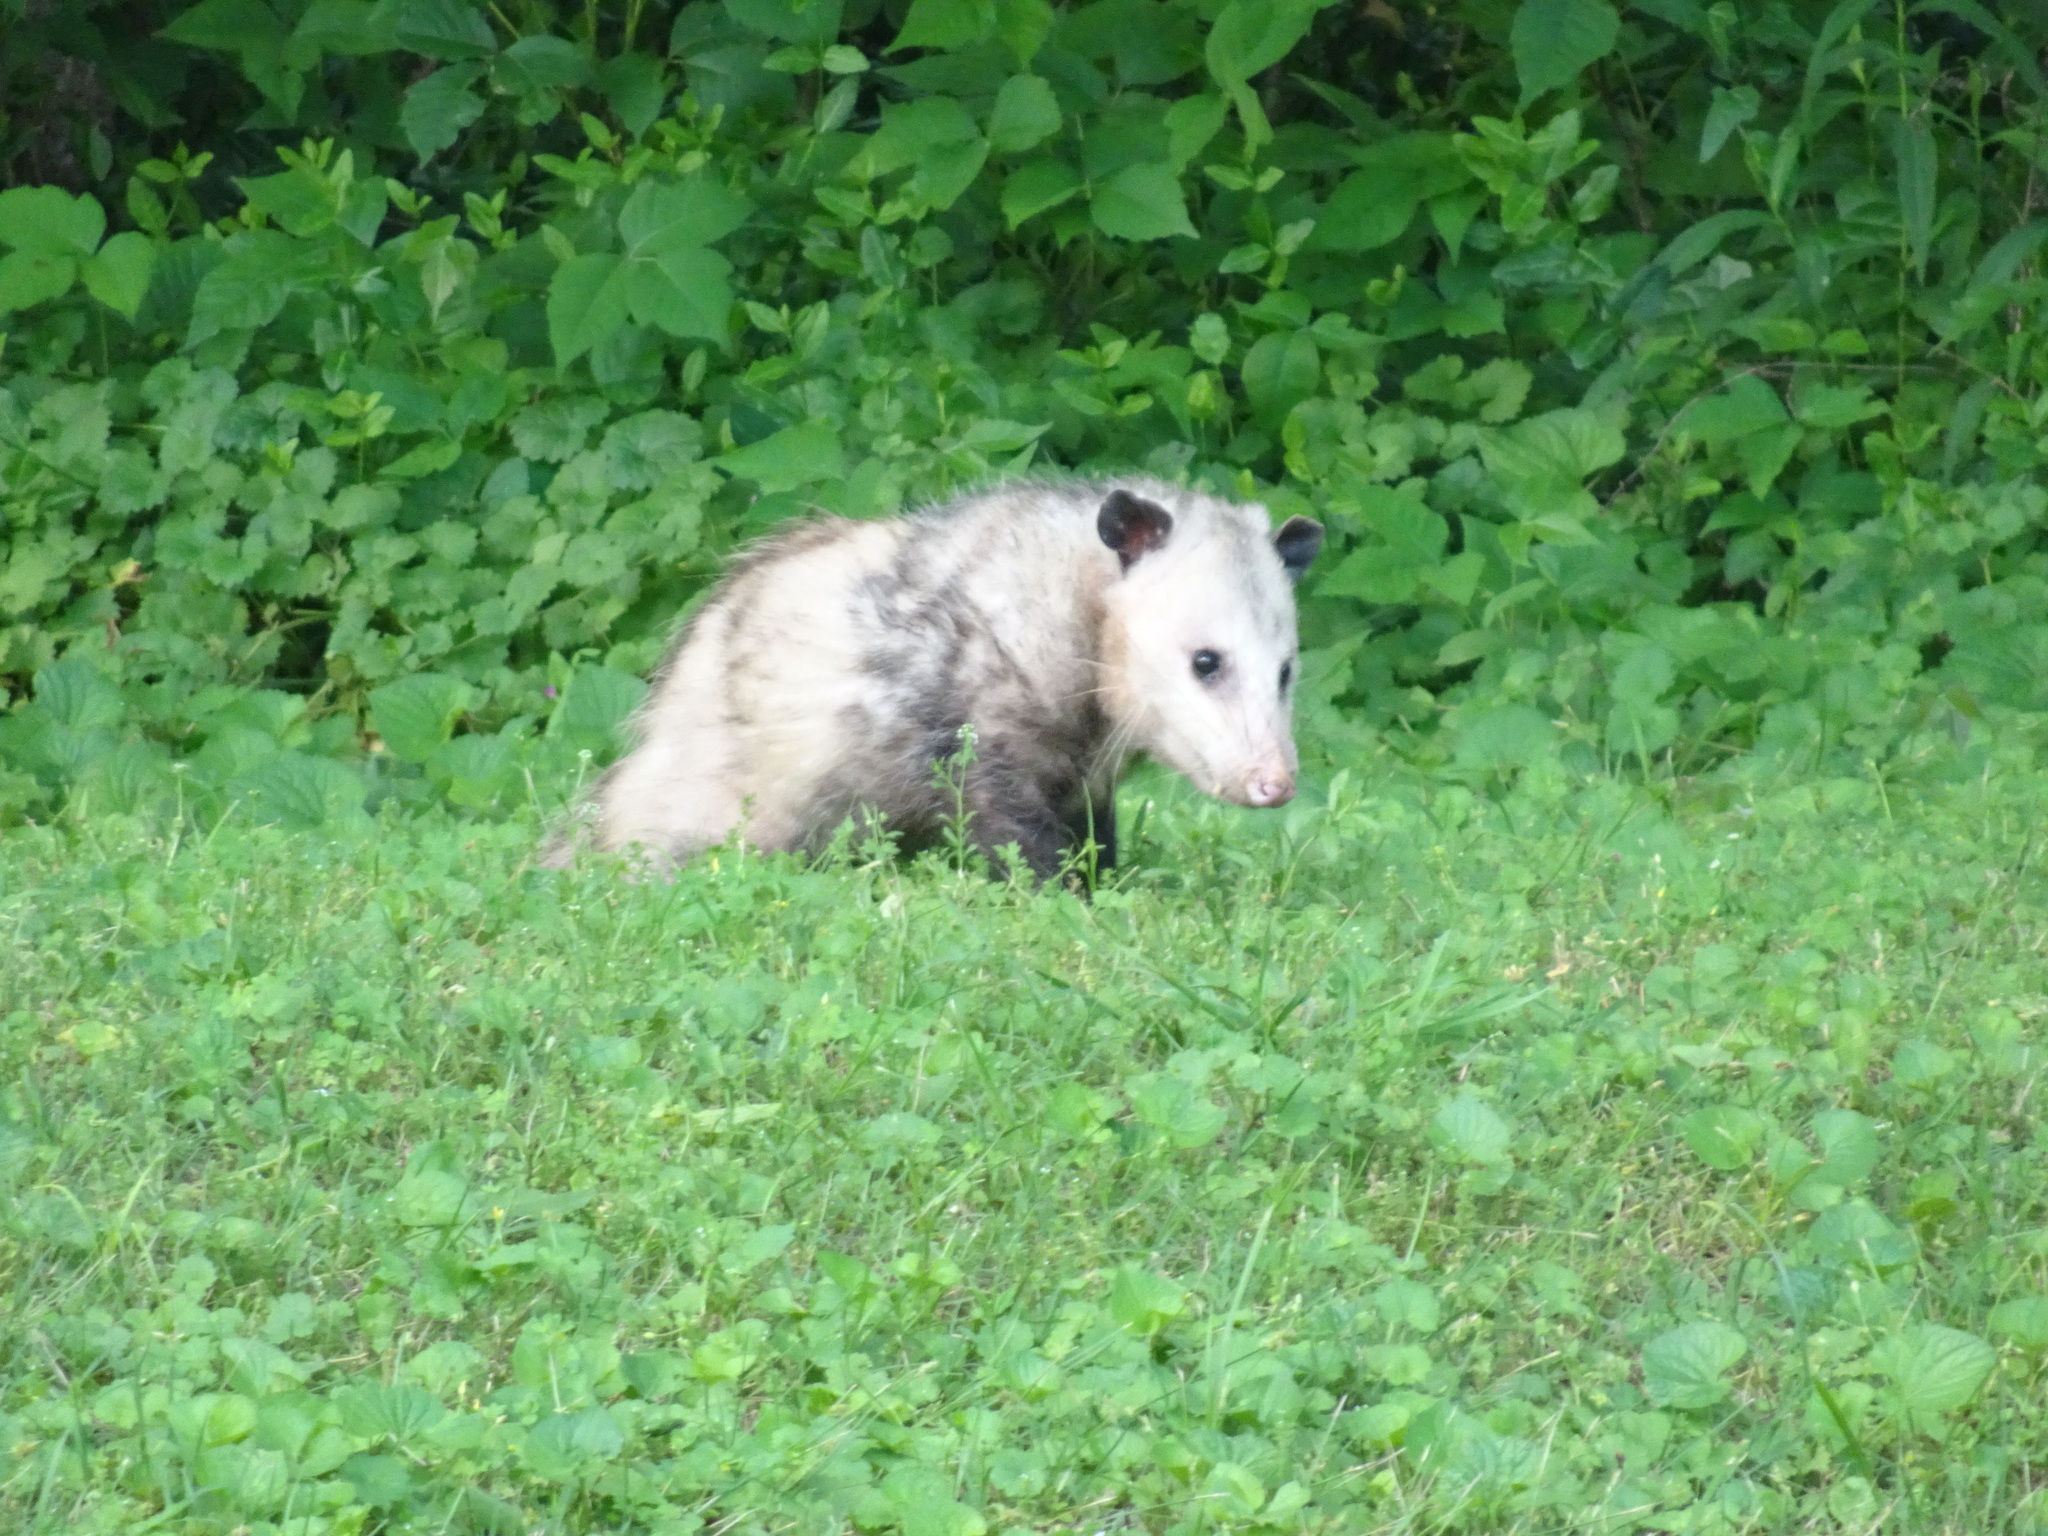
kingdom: Animalia
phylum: Chordata
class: Mammalia
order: Didelphimorphia
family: Didelphidae
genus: Didelphis
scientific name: Didelphis virginiana
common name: Virginia opossum
